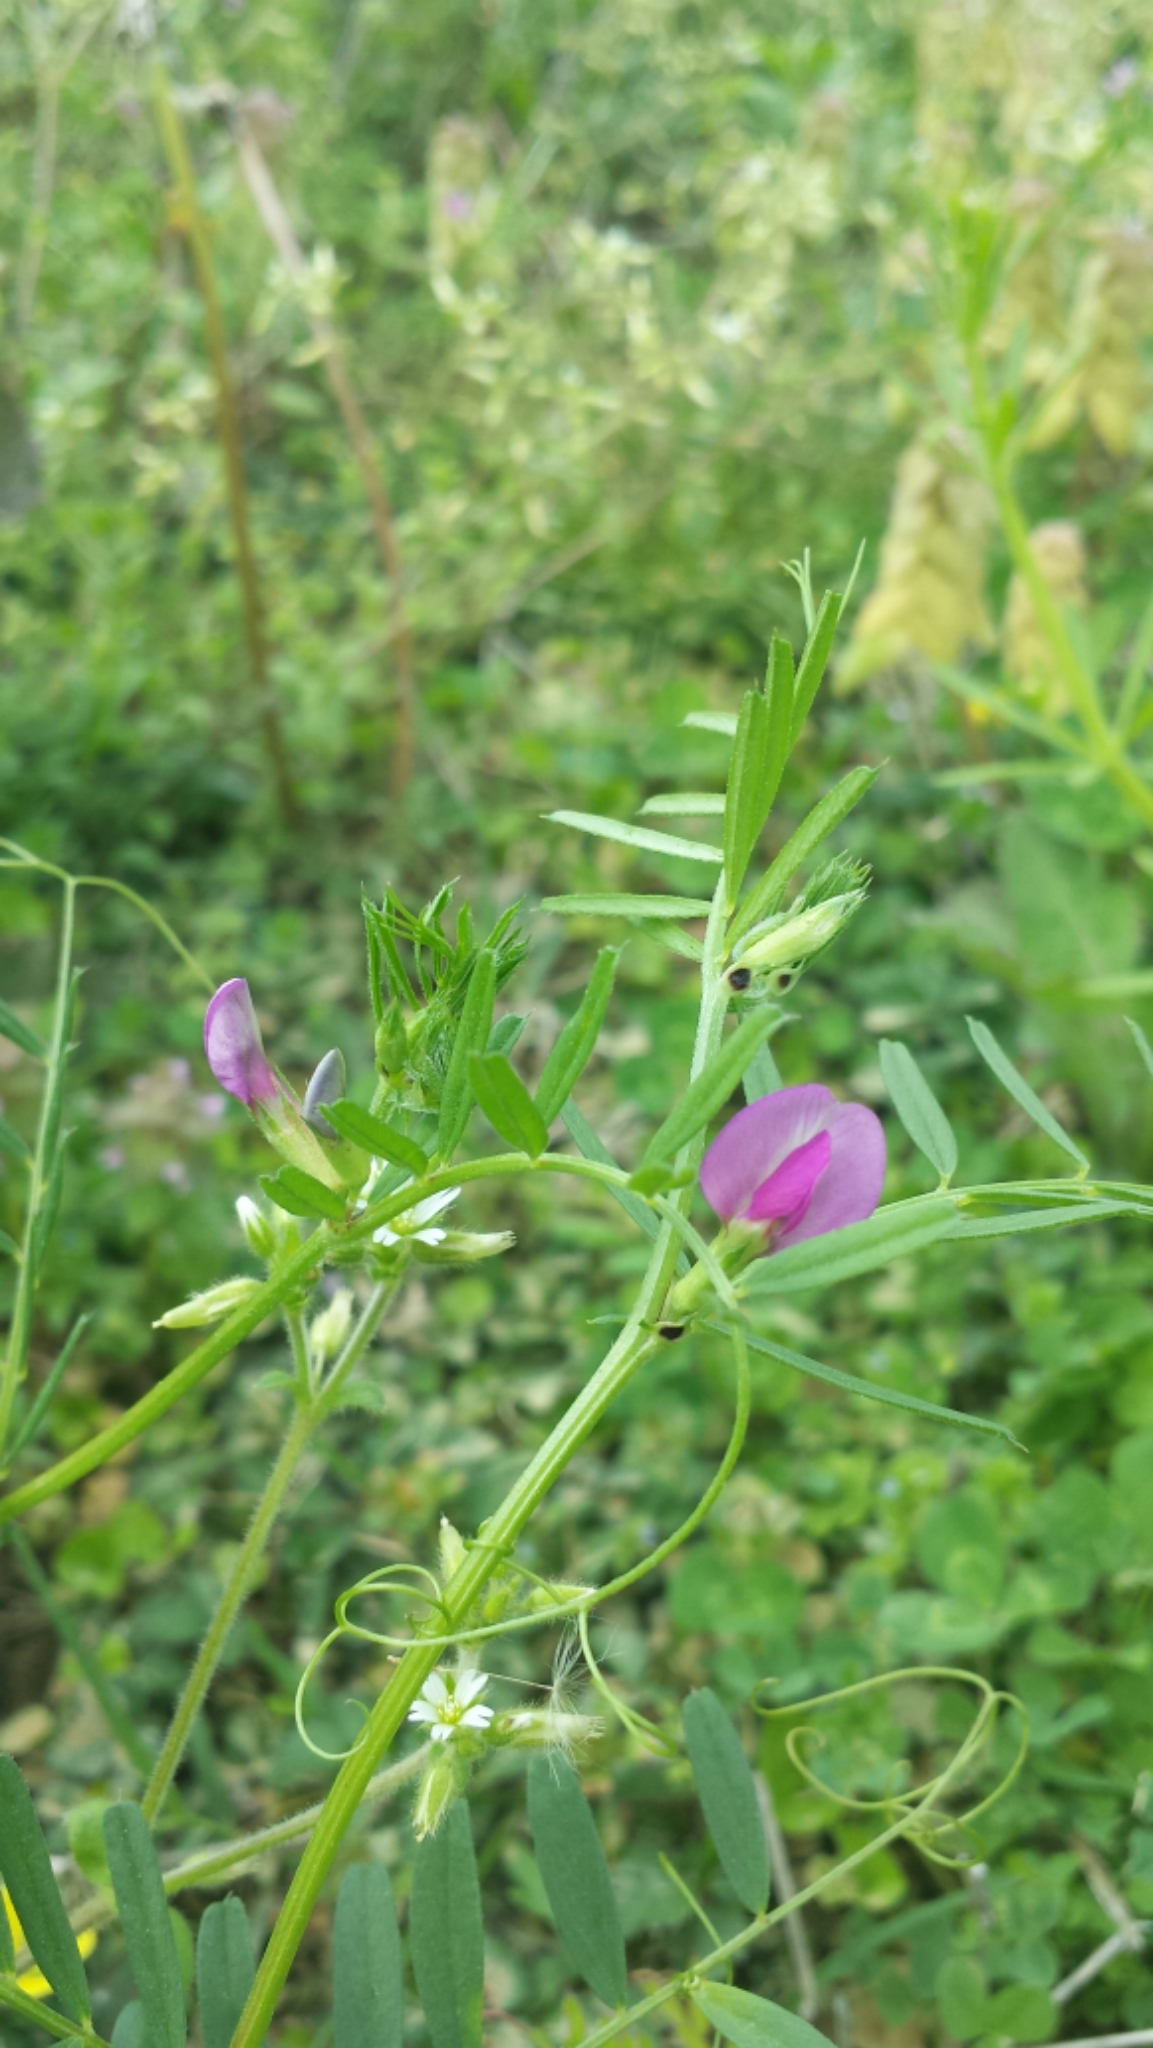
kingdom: Plantae
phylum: Tracheophyta
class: Magnoliopsida
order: Fabales
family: Fabaceae
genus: Vicia
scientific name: Vicia sativa
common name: Garden vetch
